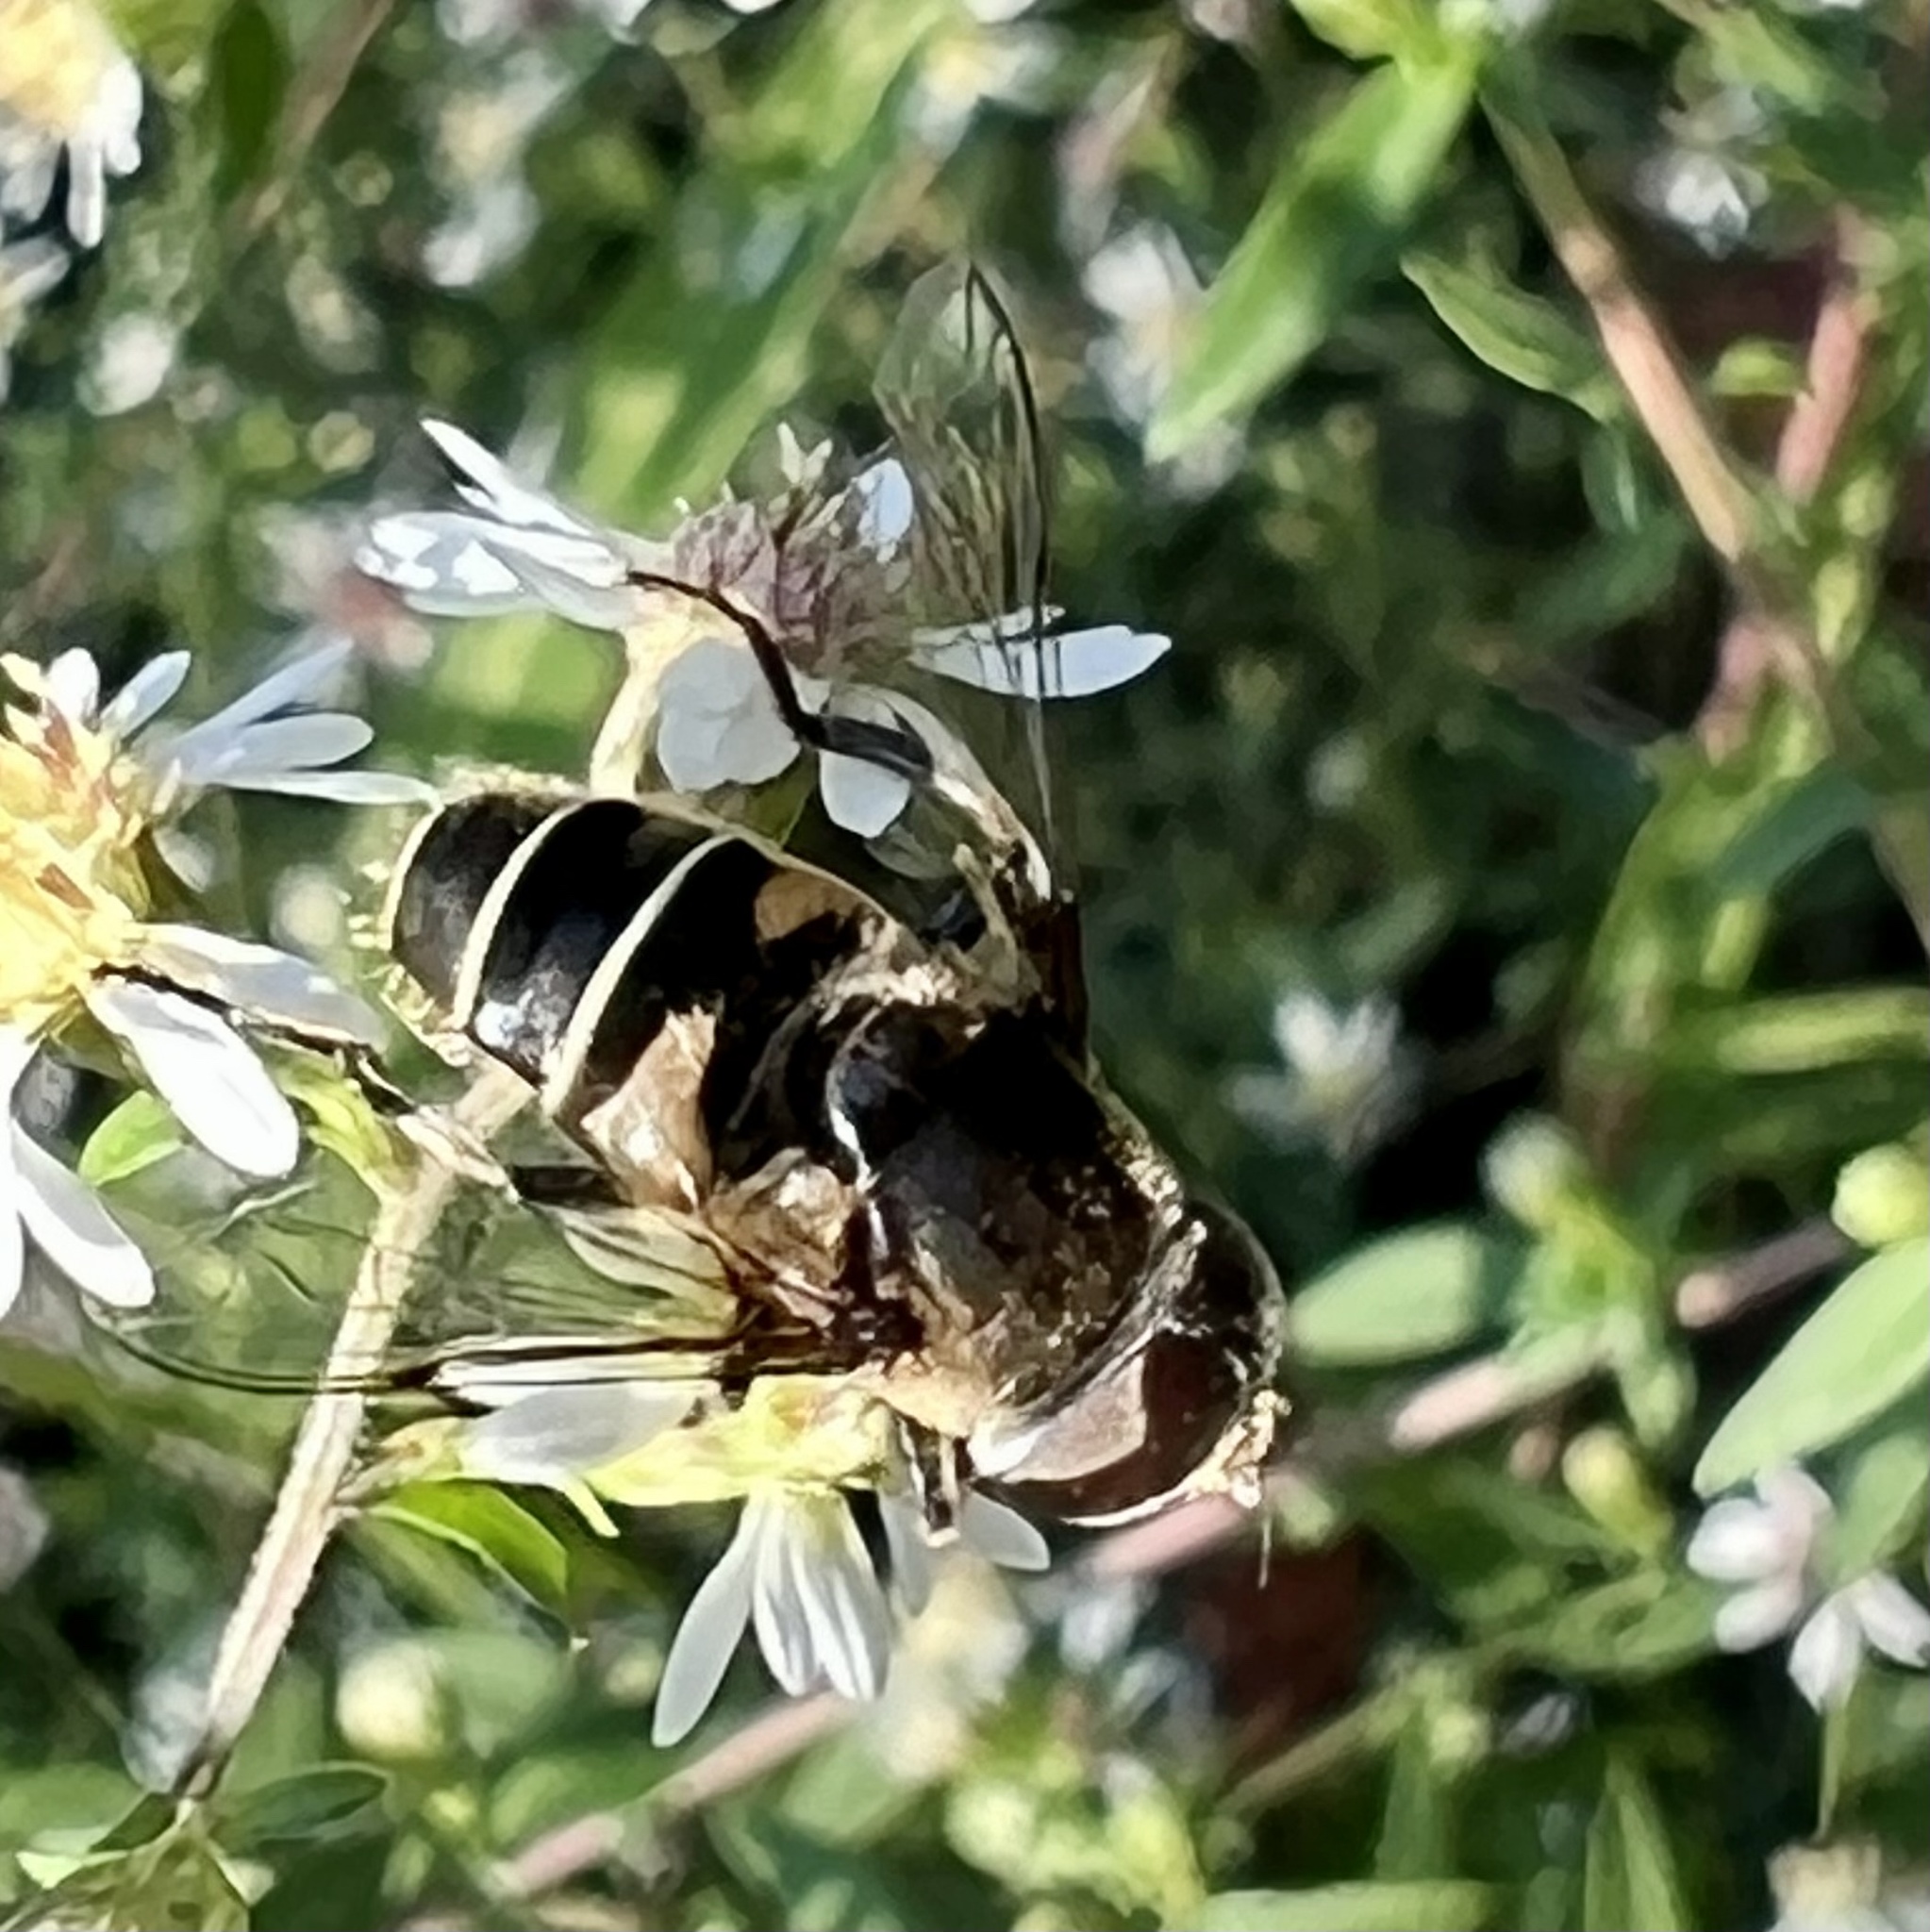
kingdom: Animalia
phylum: Arthropoda
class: Insecta
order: Diptera
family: Syrphidae
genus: Eristalis
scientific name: Eristalis dimidiata
